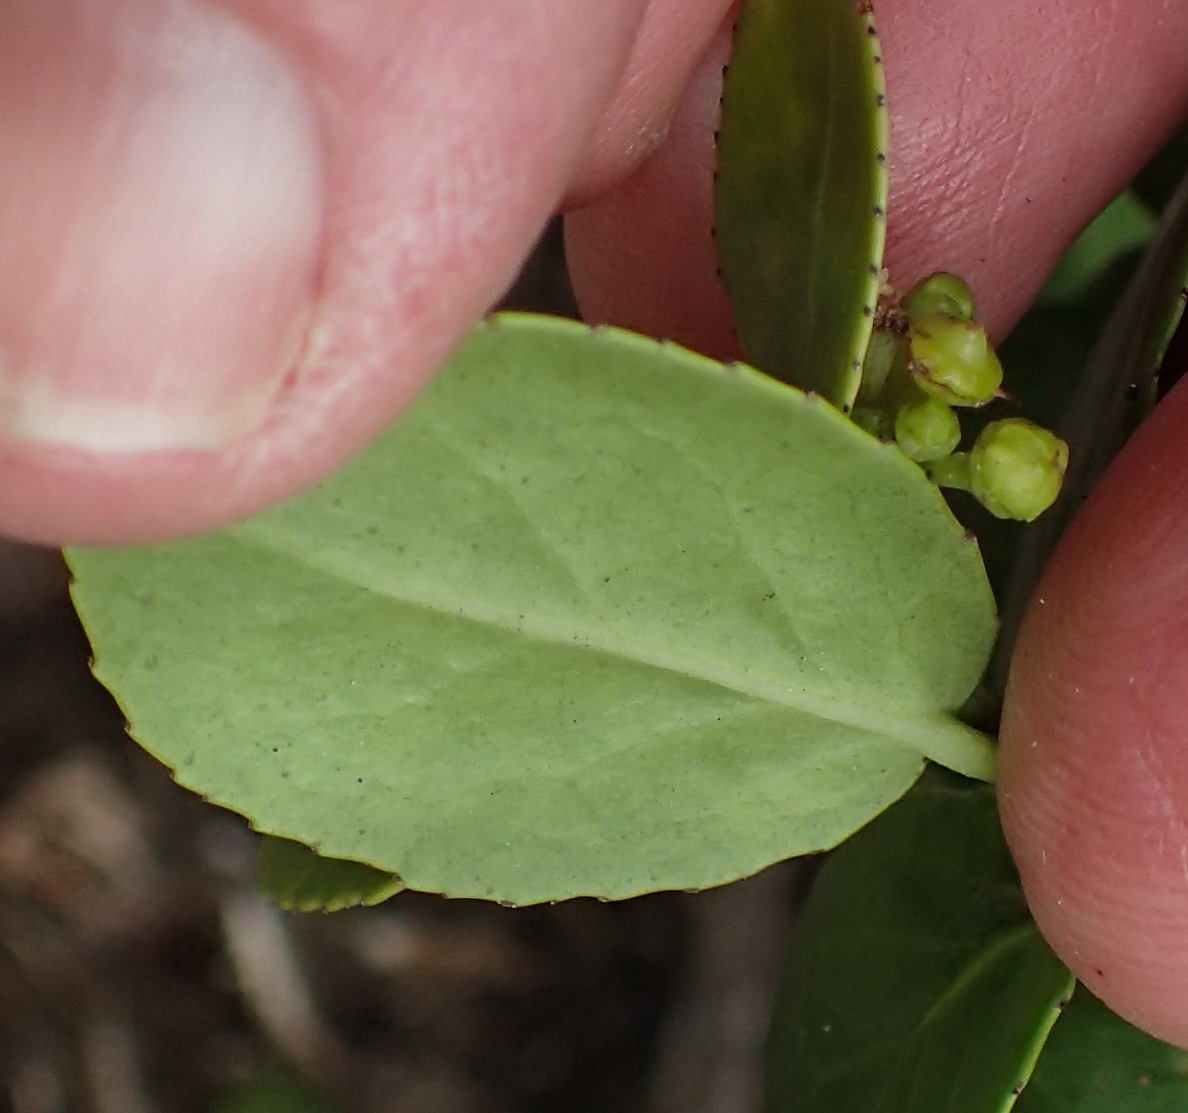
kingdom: Plantae
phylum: Tracheophyta
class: Magnoliopsida
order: Celastrales
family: Celastraceae
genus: Mystroxylon
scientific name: Mystroxylon aethiopicum
